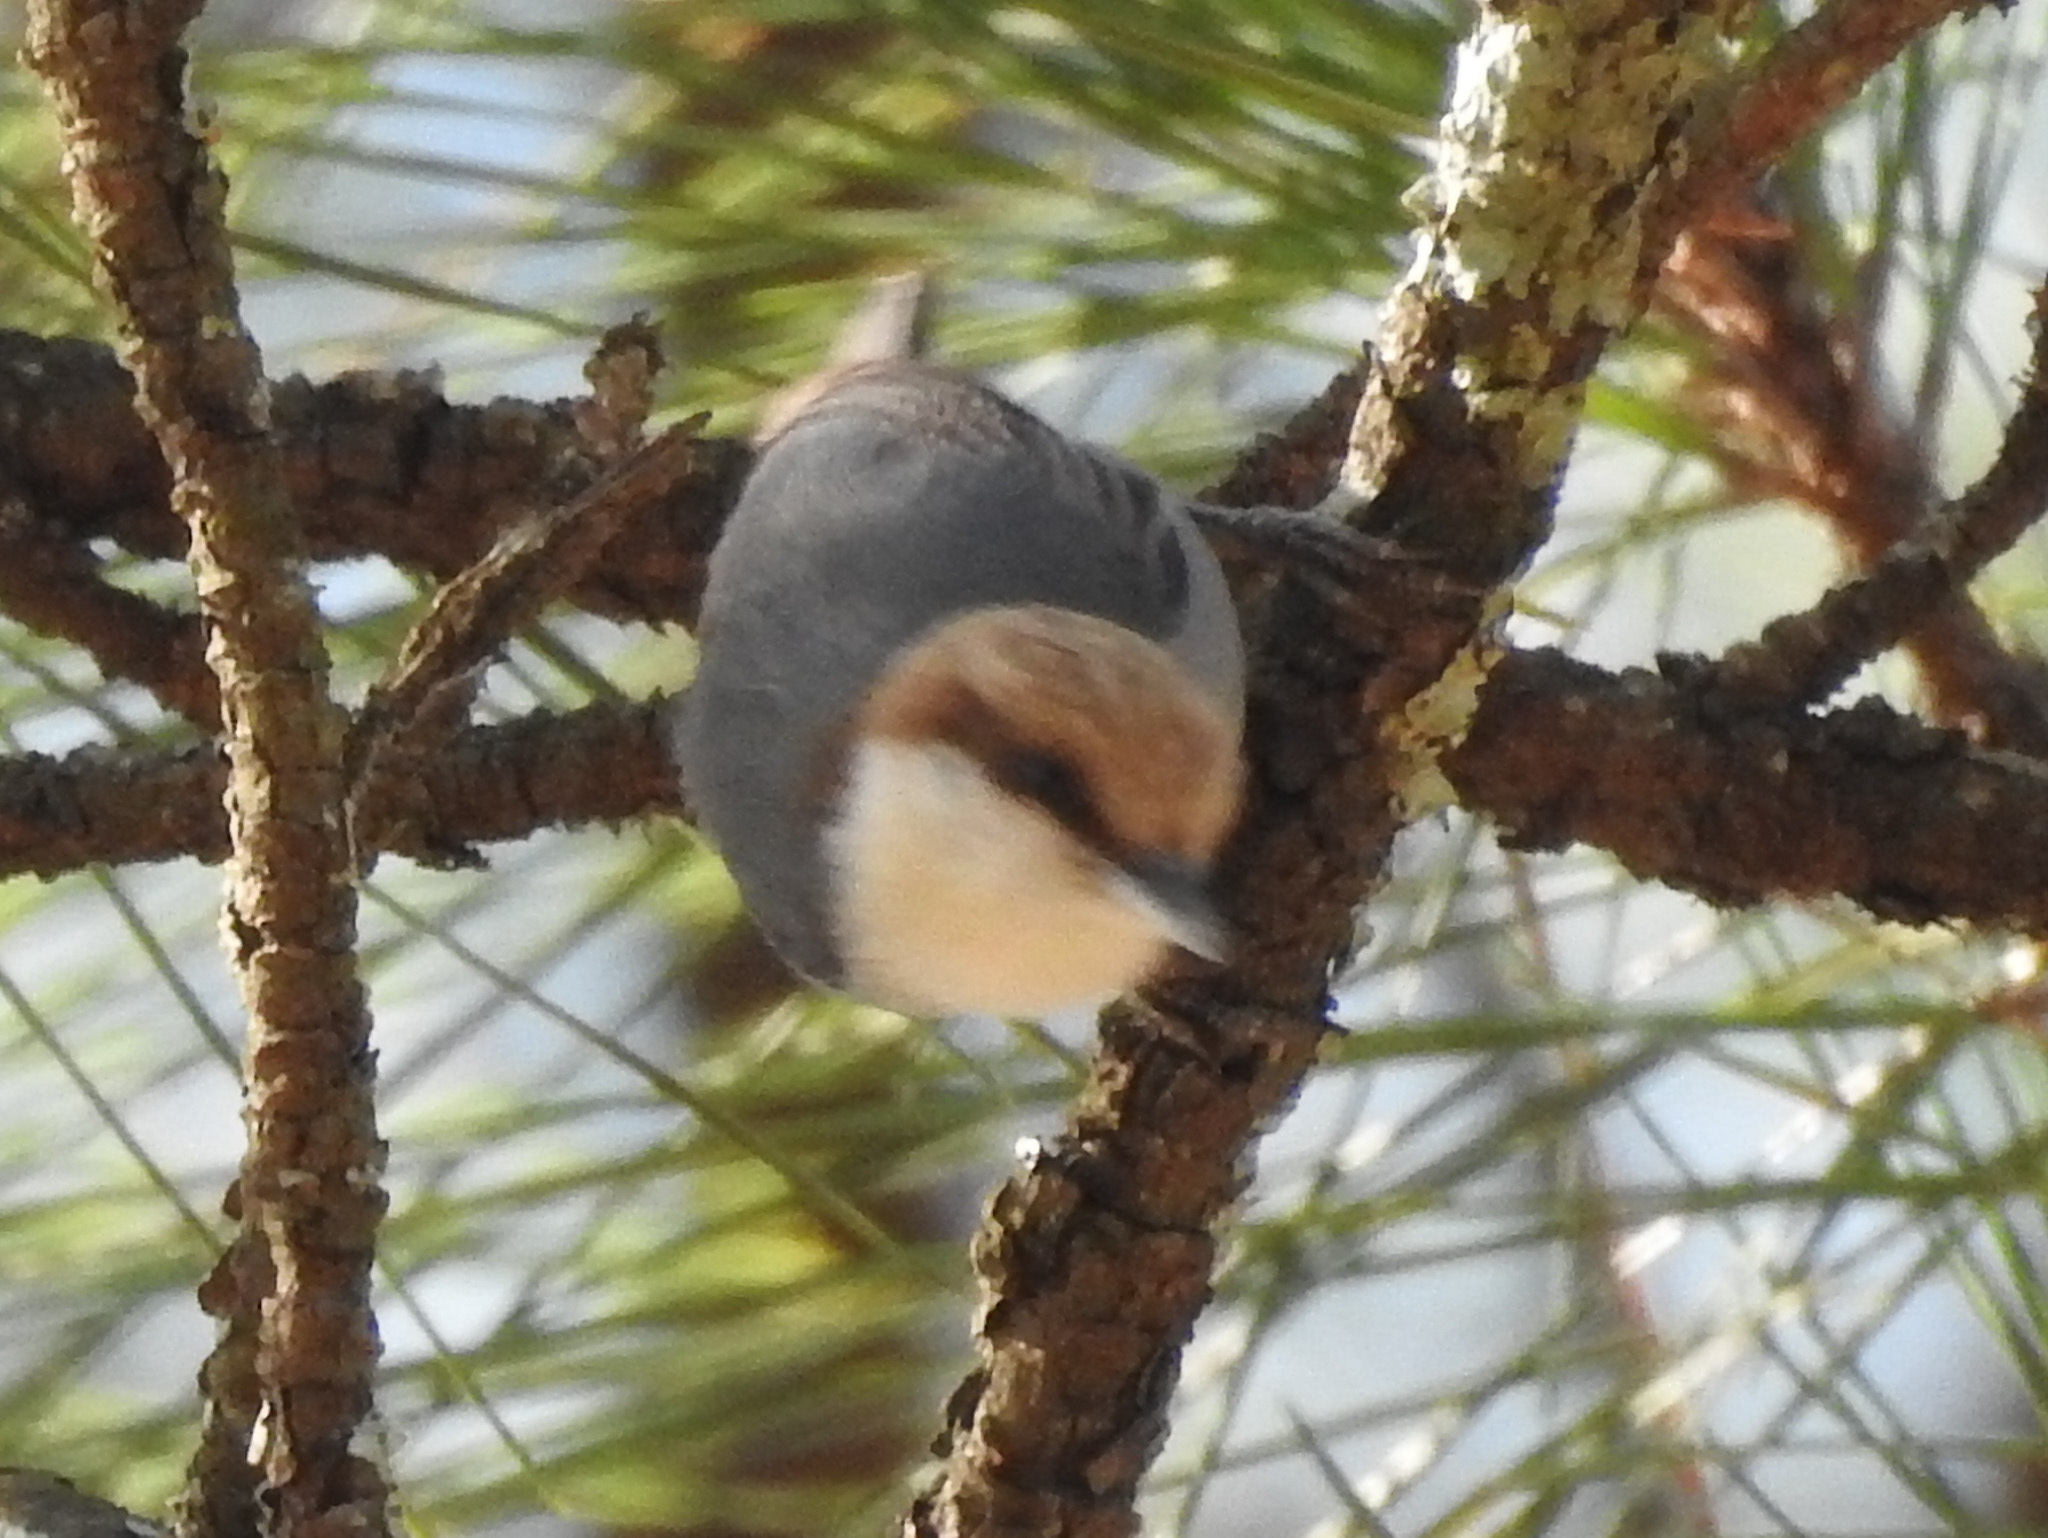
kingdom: Animalia
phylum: Chordata
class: Aves
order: Passeriformes
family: Sittidae
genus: Sitta
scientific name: Sitta pusilla
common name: Brown-headed nuthatch
